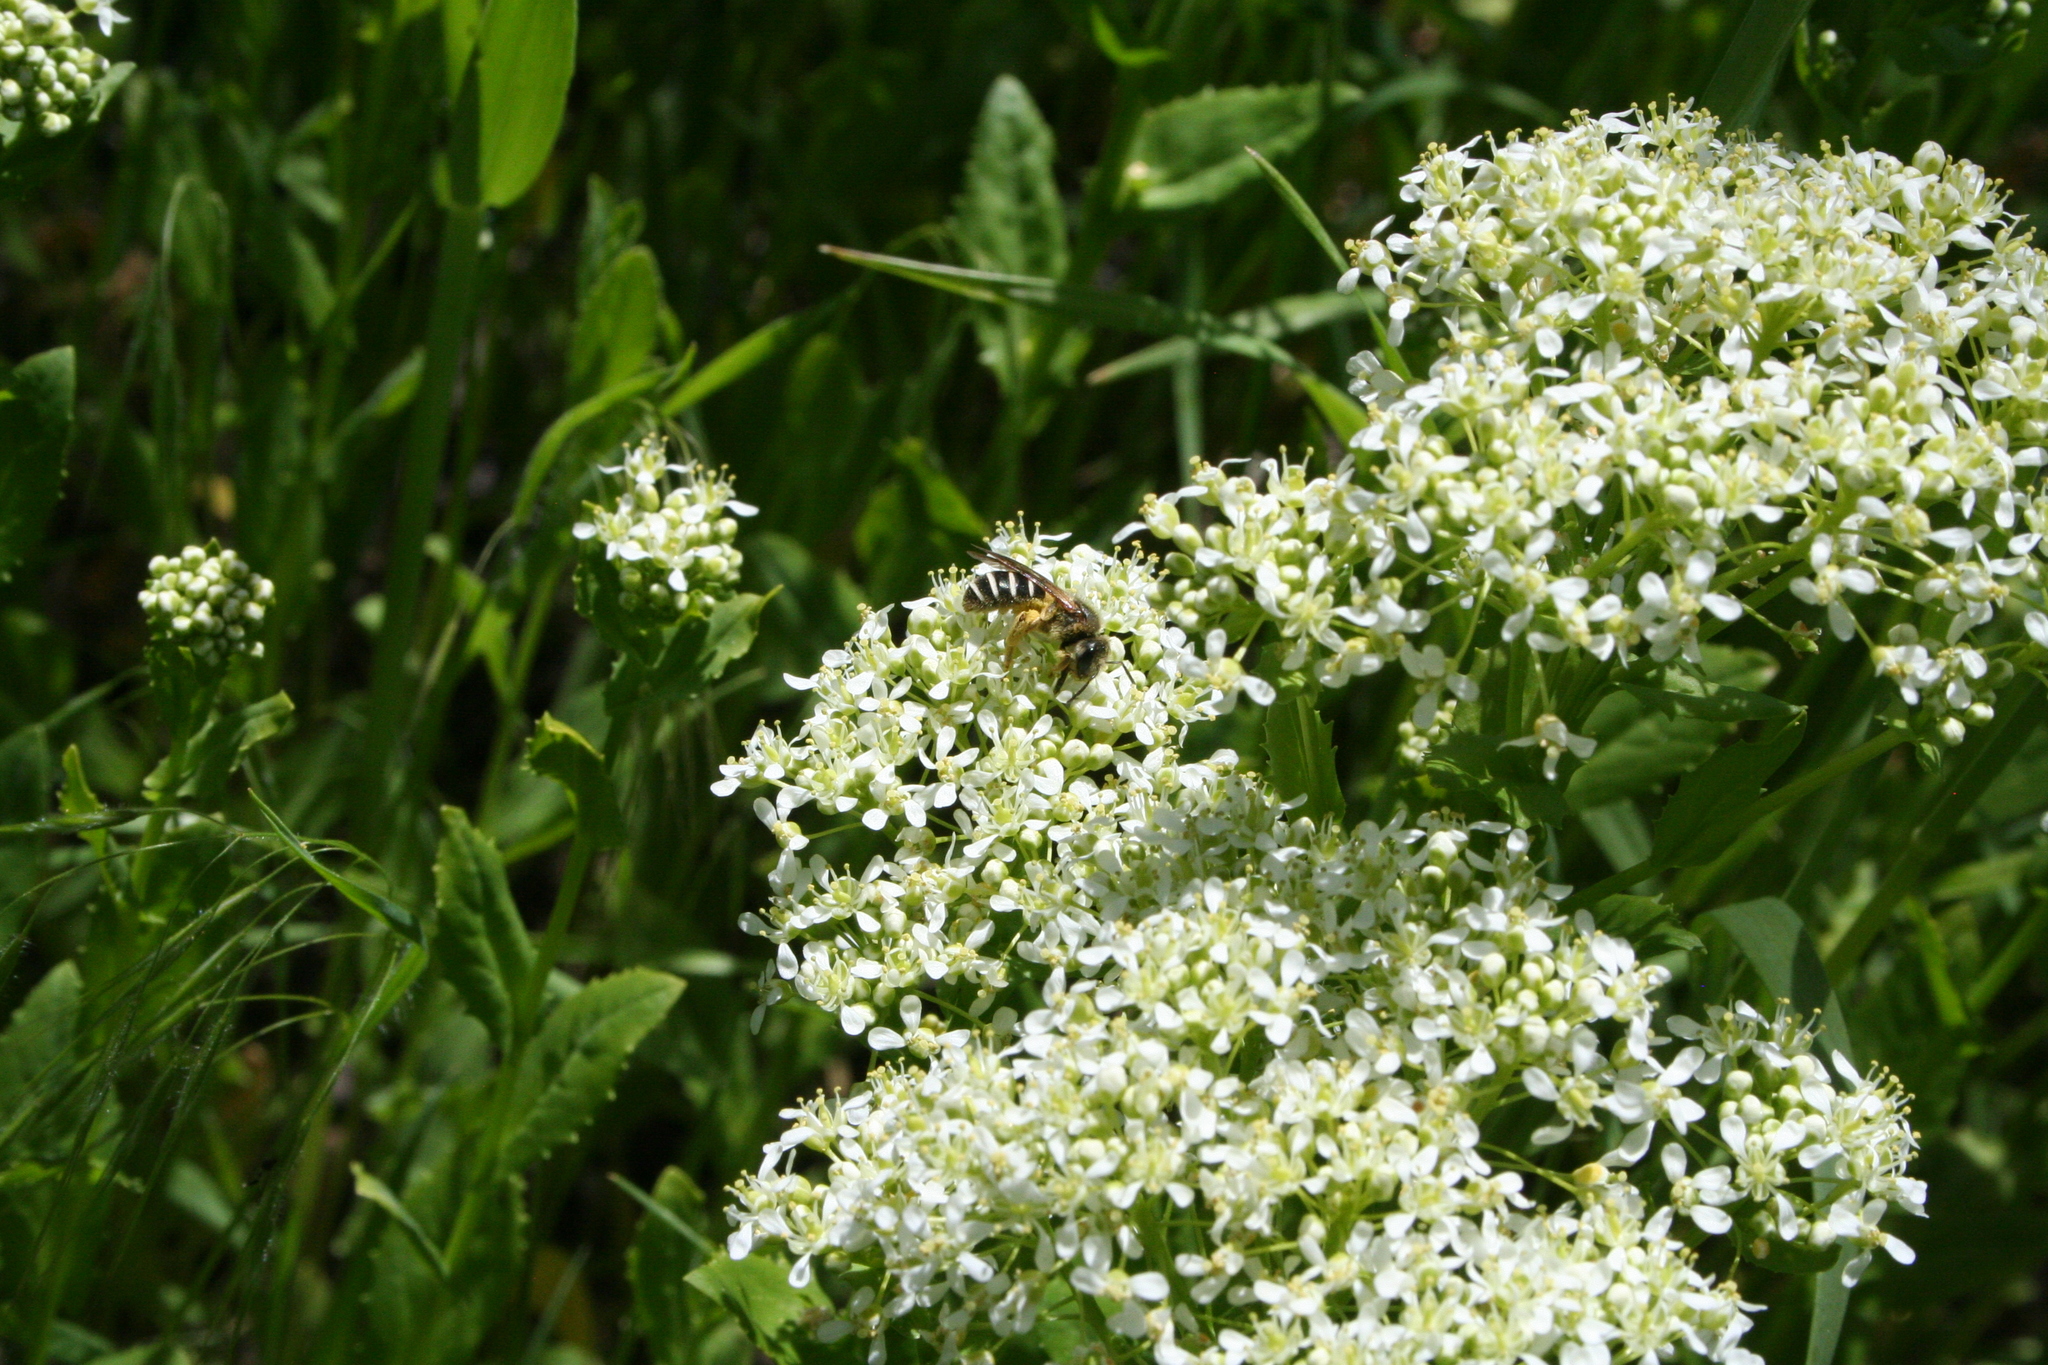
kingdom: Animalia
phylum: Arthropoda
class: Insecta
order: Hymenoptera
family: Halictidae
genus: Halictus
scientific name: Halictus rubicundus
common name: Orange-legged furrow bee
